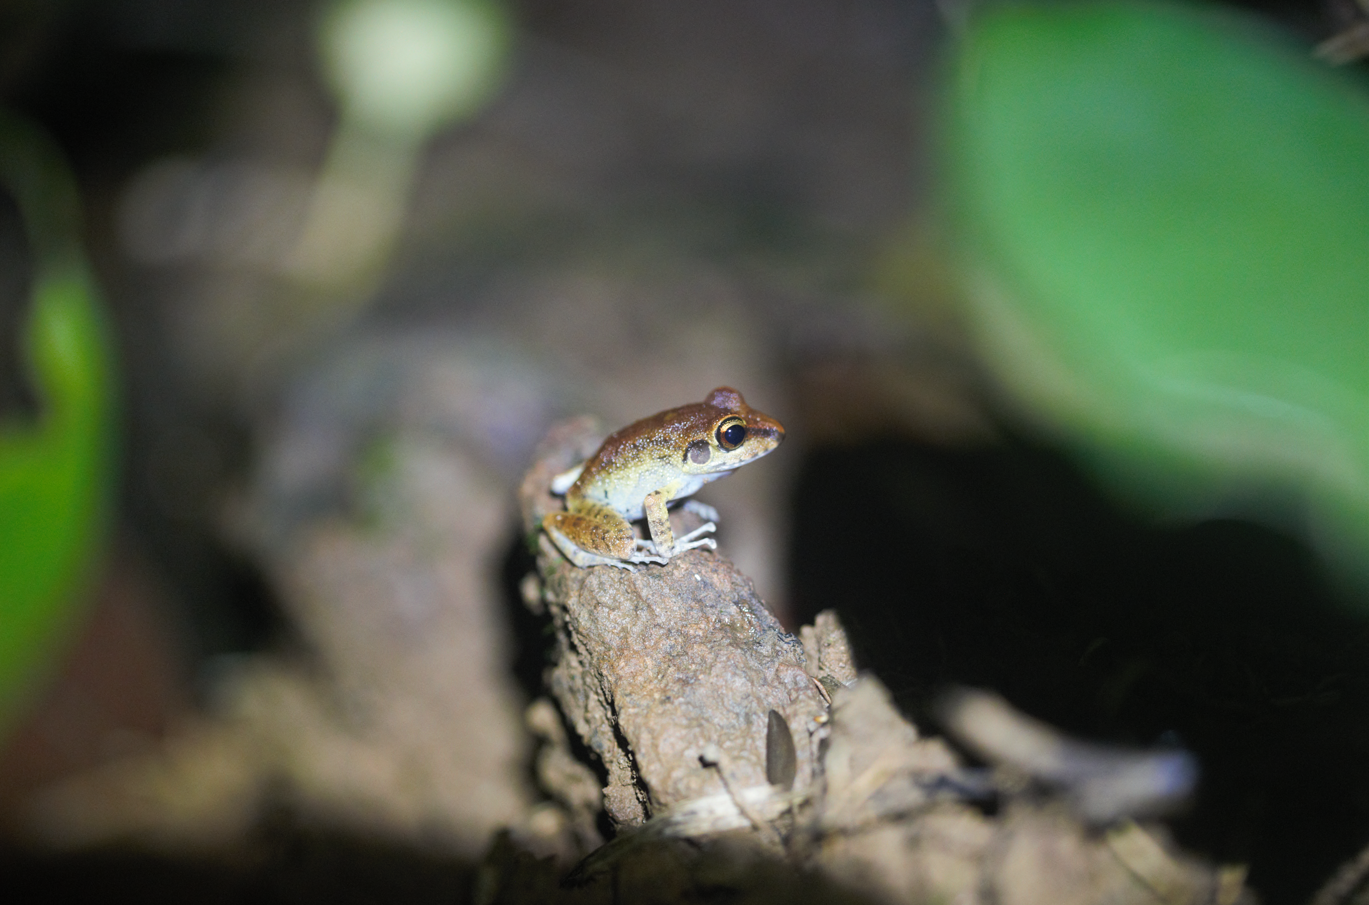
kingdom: Animalia
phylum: Chordata
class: Amphibia
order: Anura
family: Craugastoridae
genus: Pristimantis
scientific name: Pristimantis zeuctotylus
